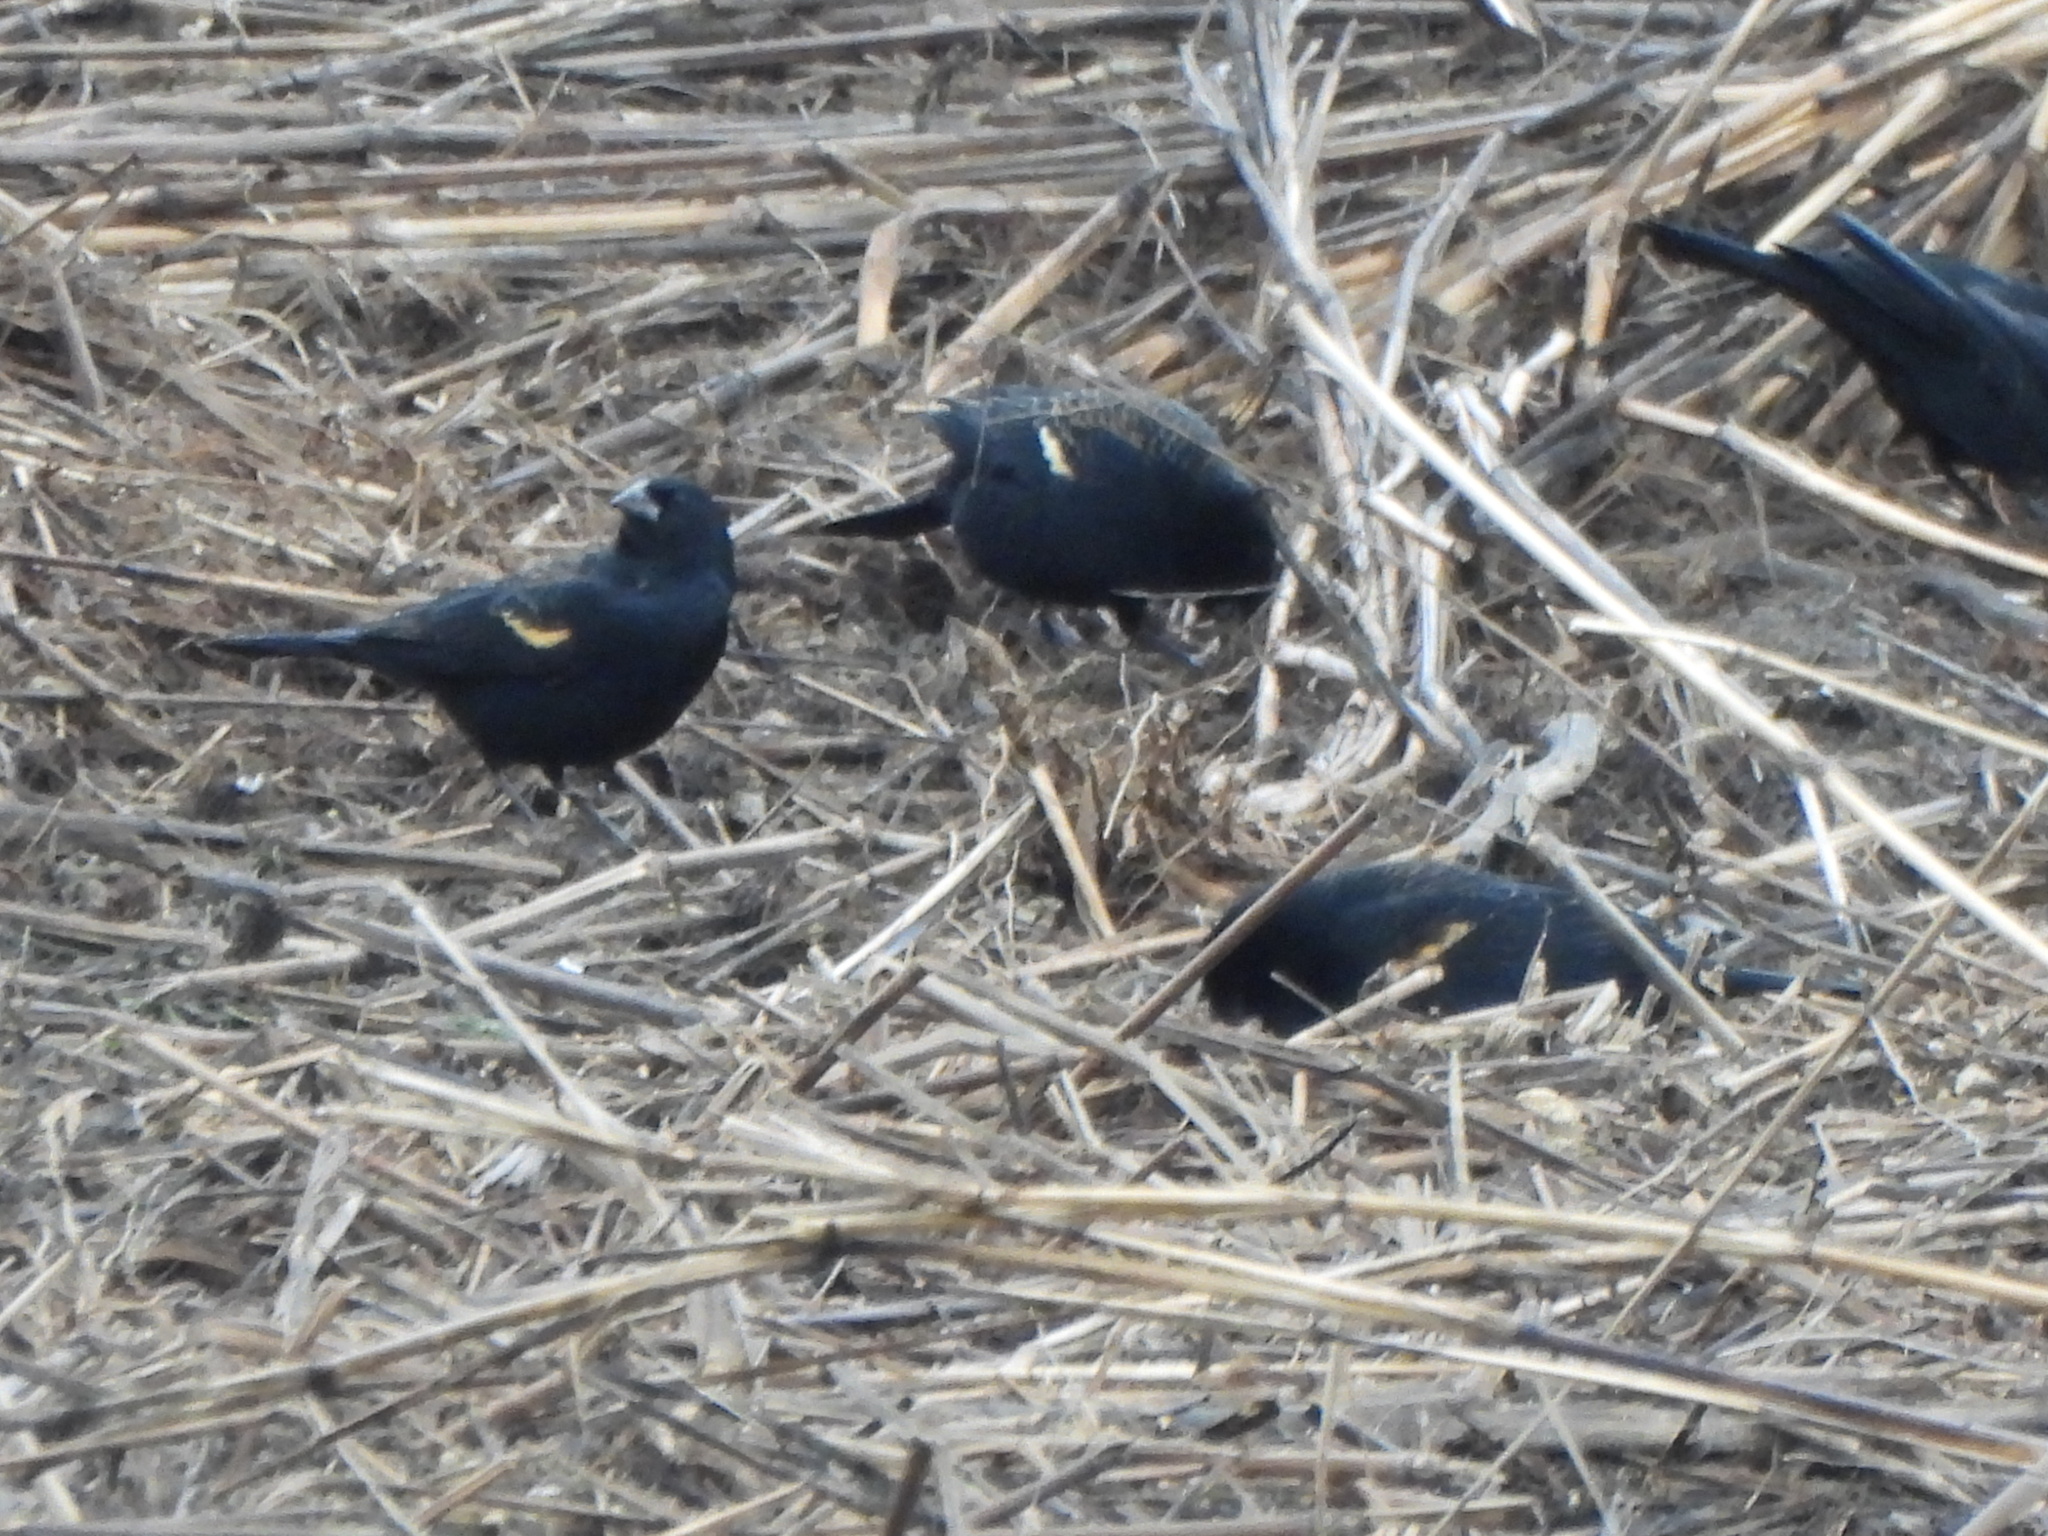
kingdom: Animalia
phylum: Chordata
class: Aves
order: Passeriformes
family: Icteridae
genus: Agelaius
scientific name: Agelaius phoeniceus
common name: Red-winged blackbird
